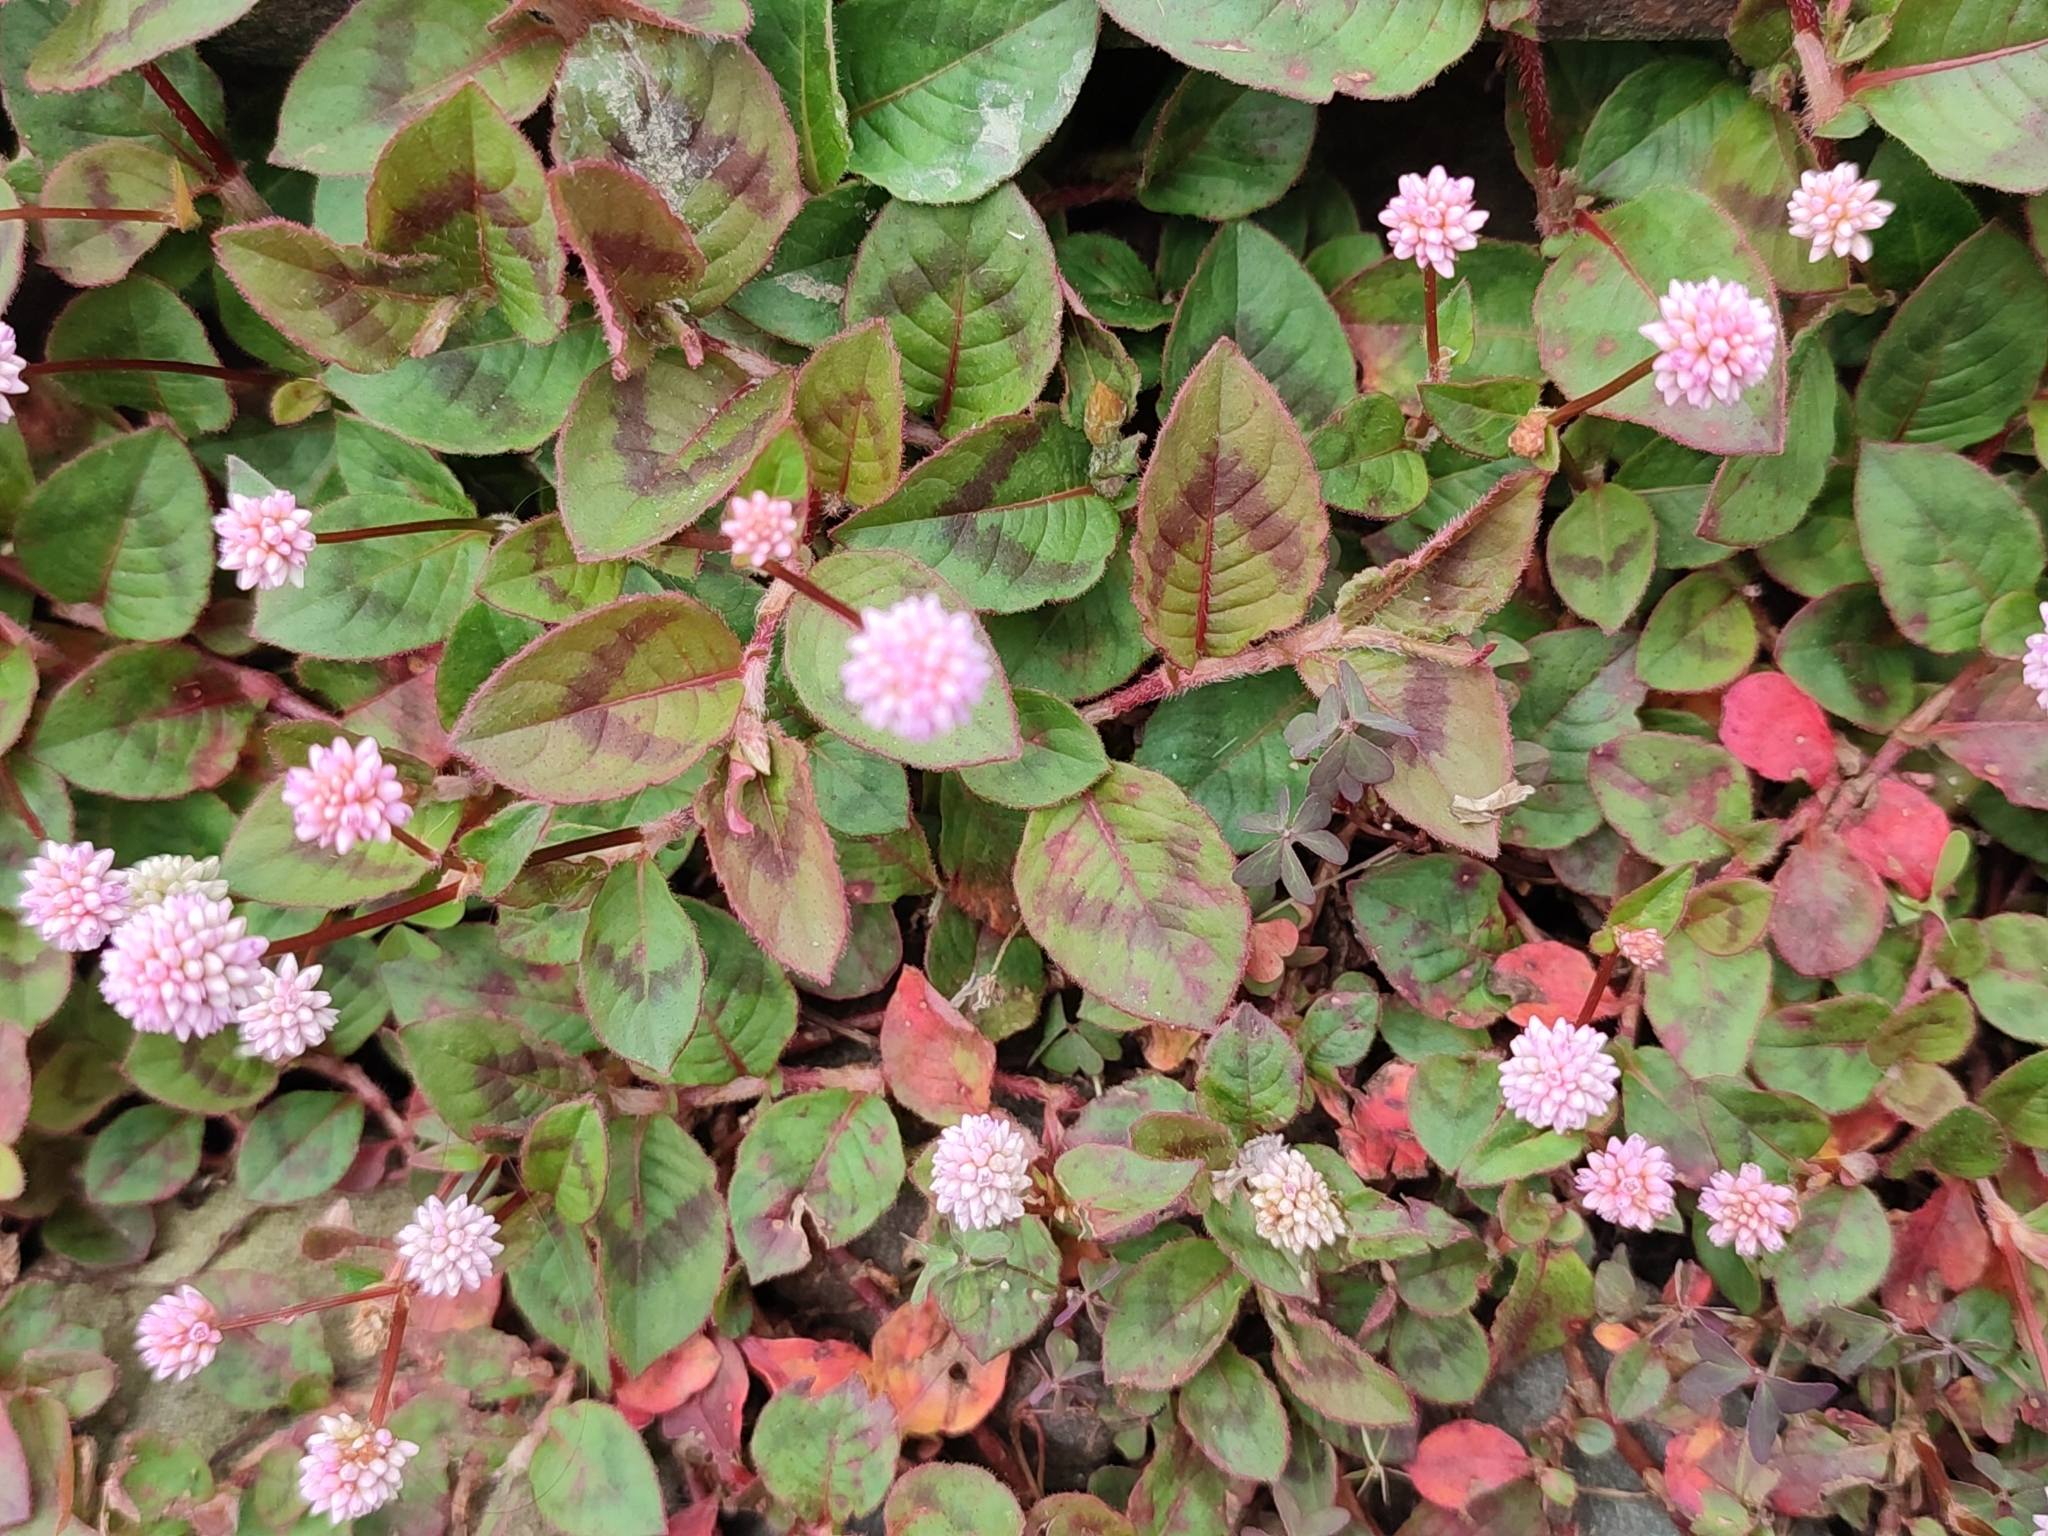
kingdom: Plantae
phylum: Tracheophyta
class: Magnoliopsida
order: Caryophyllales
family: Polygonaceae
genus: Persicaria
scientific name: Persicaria capitata
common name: Pinkhead smartweed
